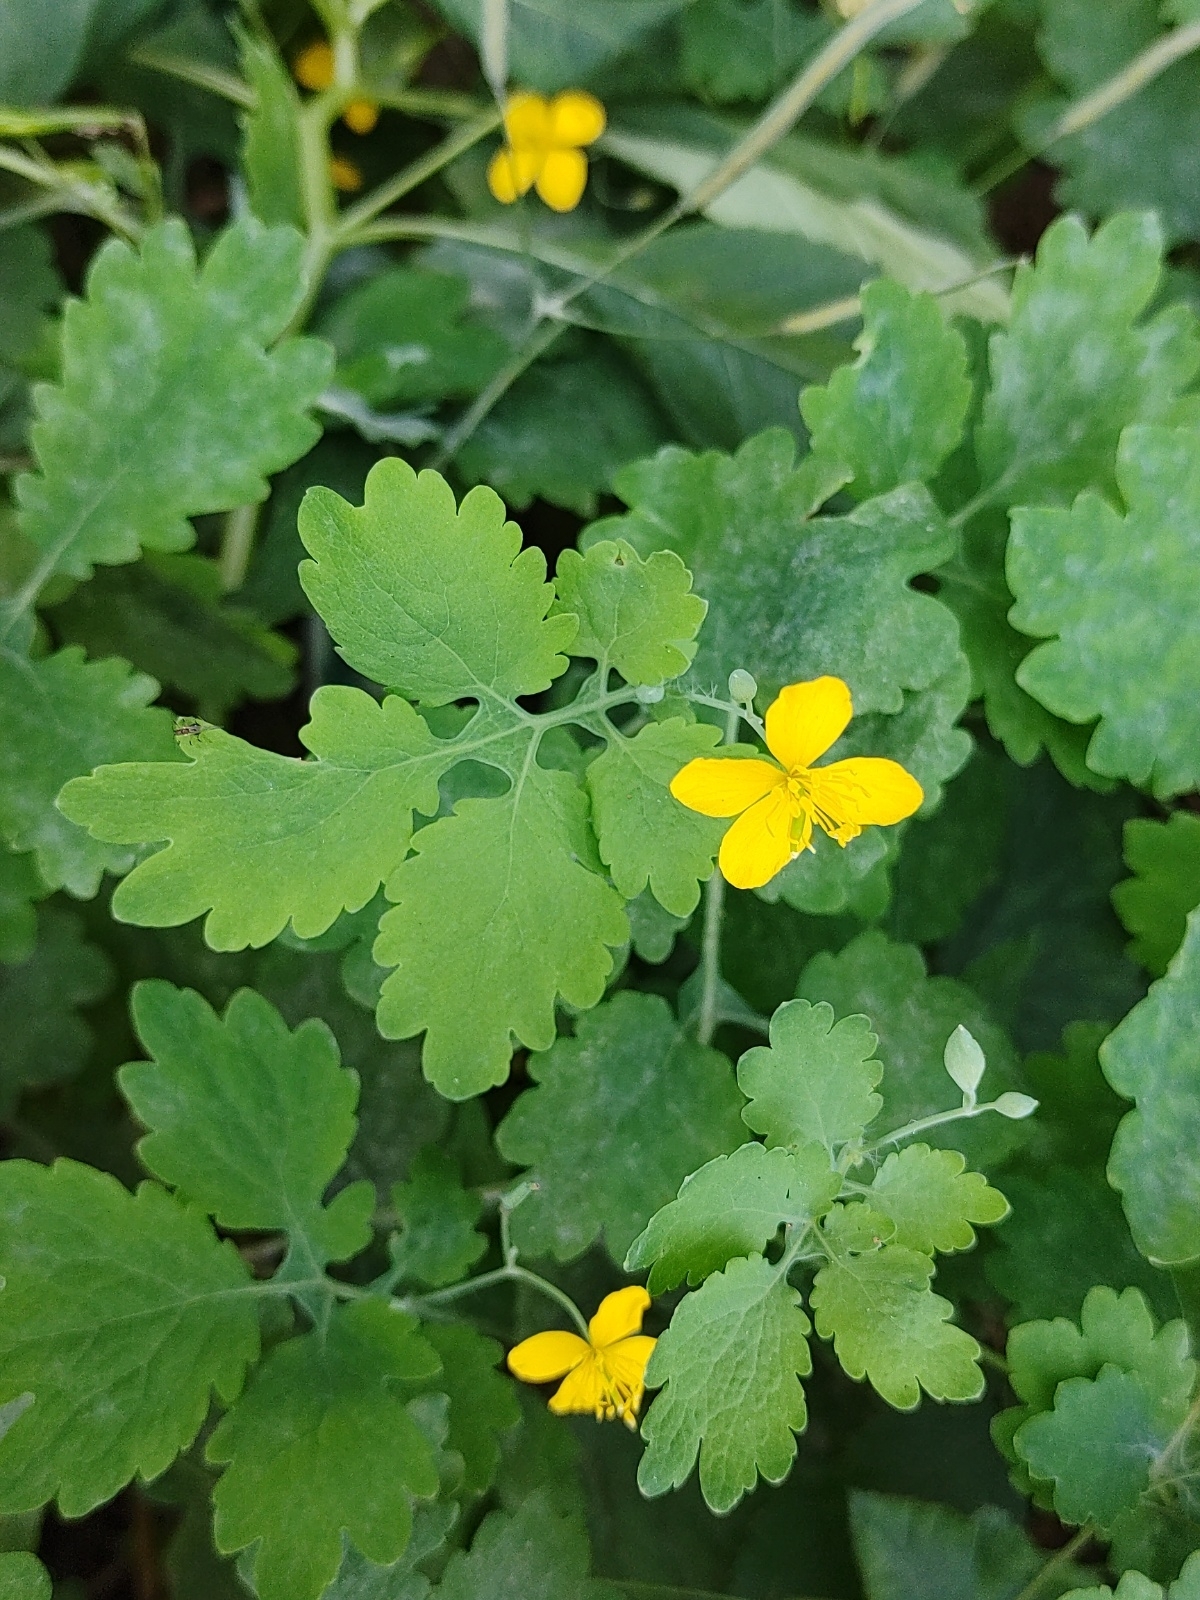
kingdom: Plantae
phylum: Tracheophyta
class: Magnoliopsida
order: Ranunculales
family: Papaveraceae
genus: Chelidonium
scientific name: Chelidonium majus
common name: Greater celandine
